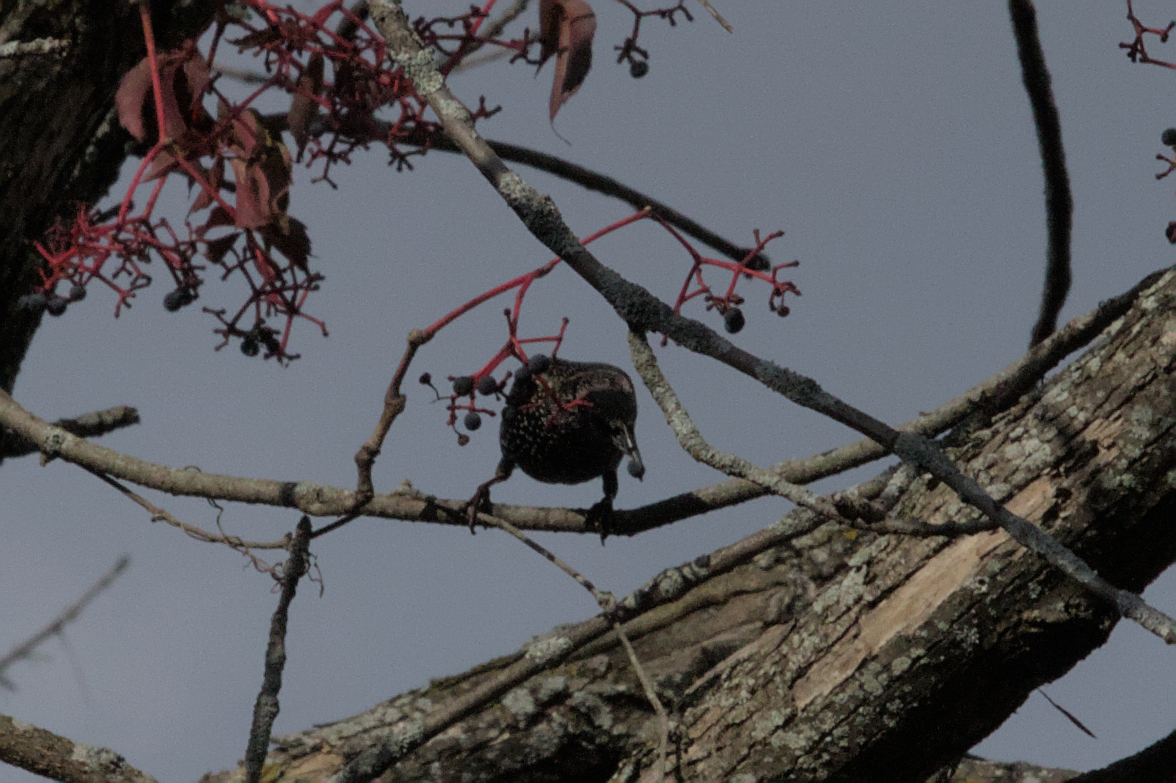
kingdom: Animalia
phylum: Chordata
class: Aves
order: Passeriformes
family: Sturnidae
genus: Sturnus
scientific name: Sturnus vulgaris
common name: Common starling
